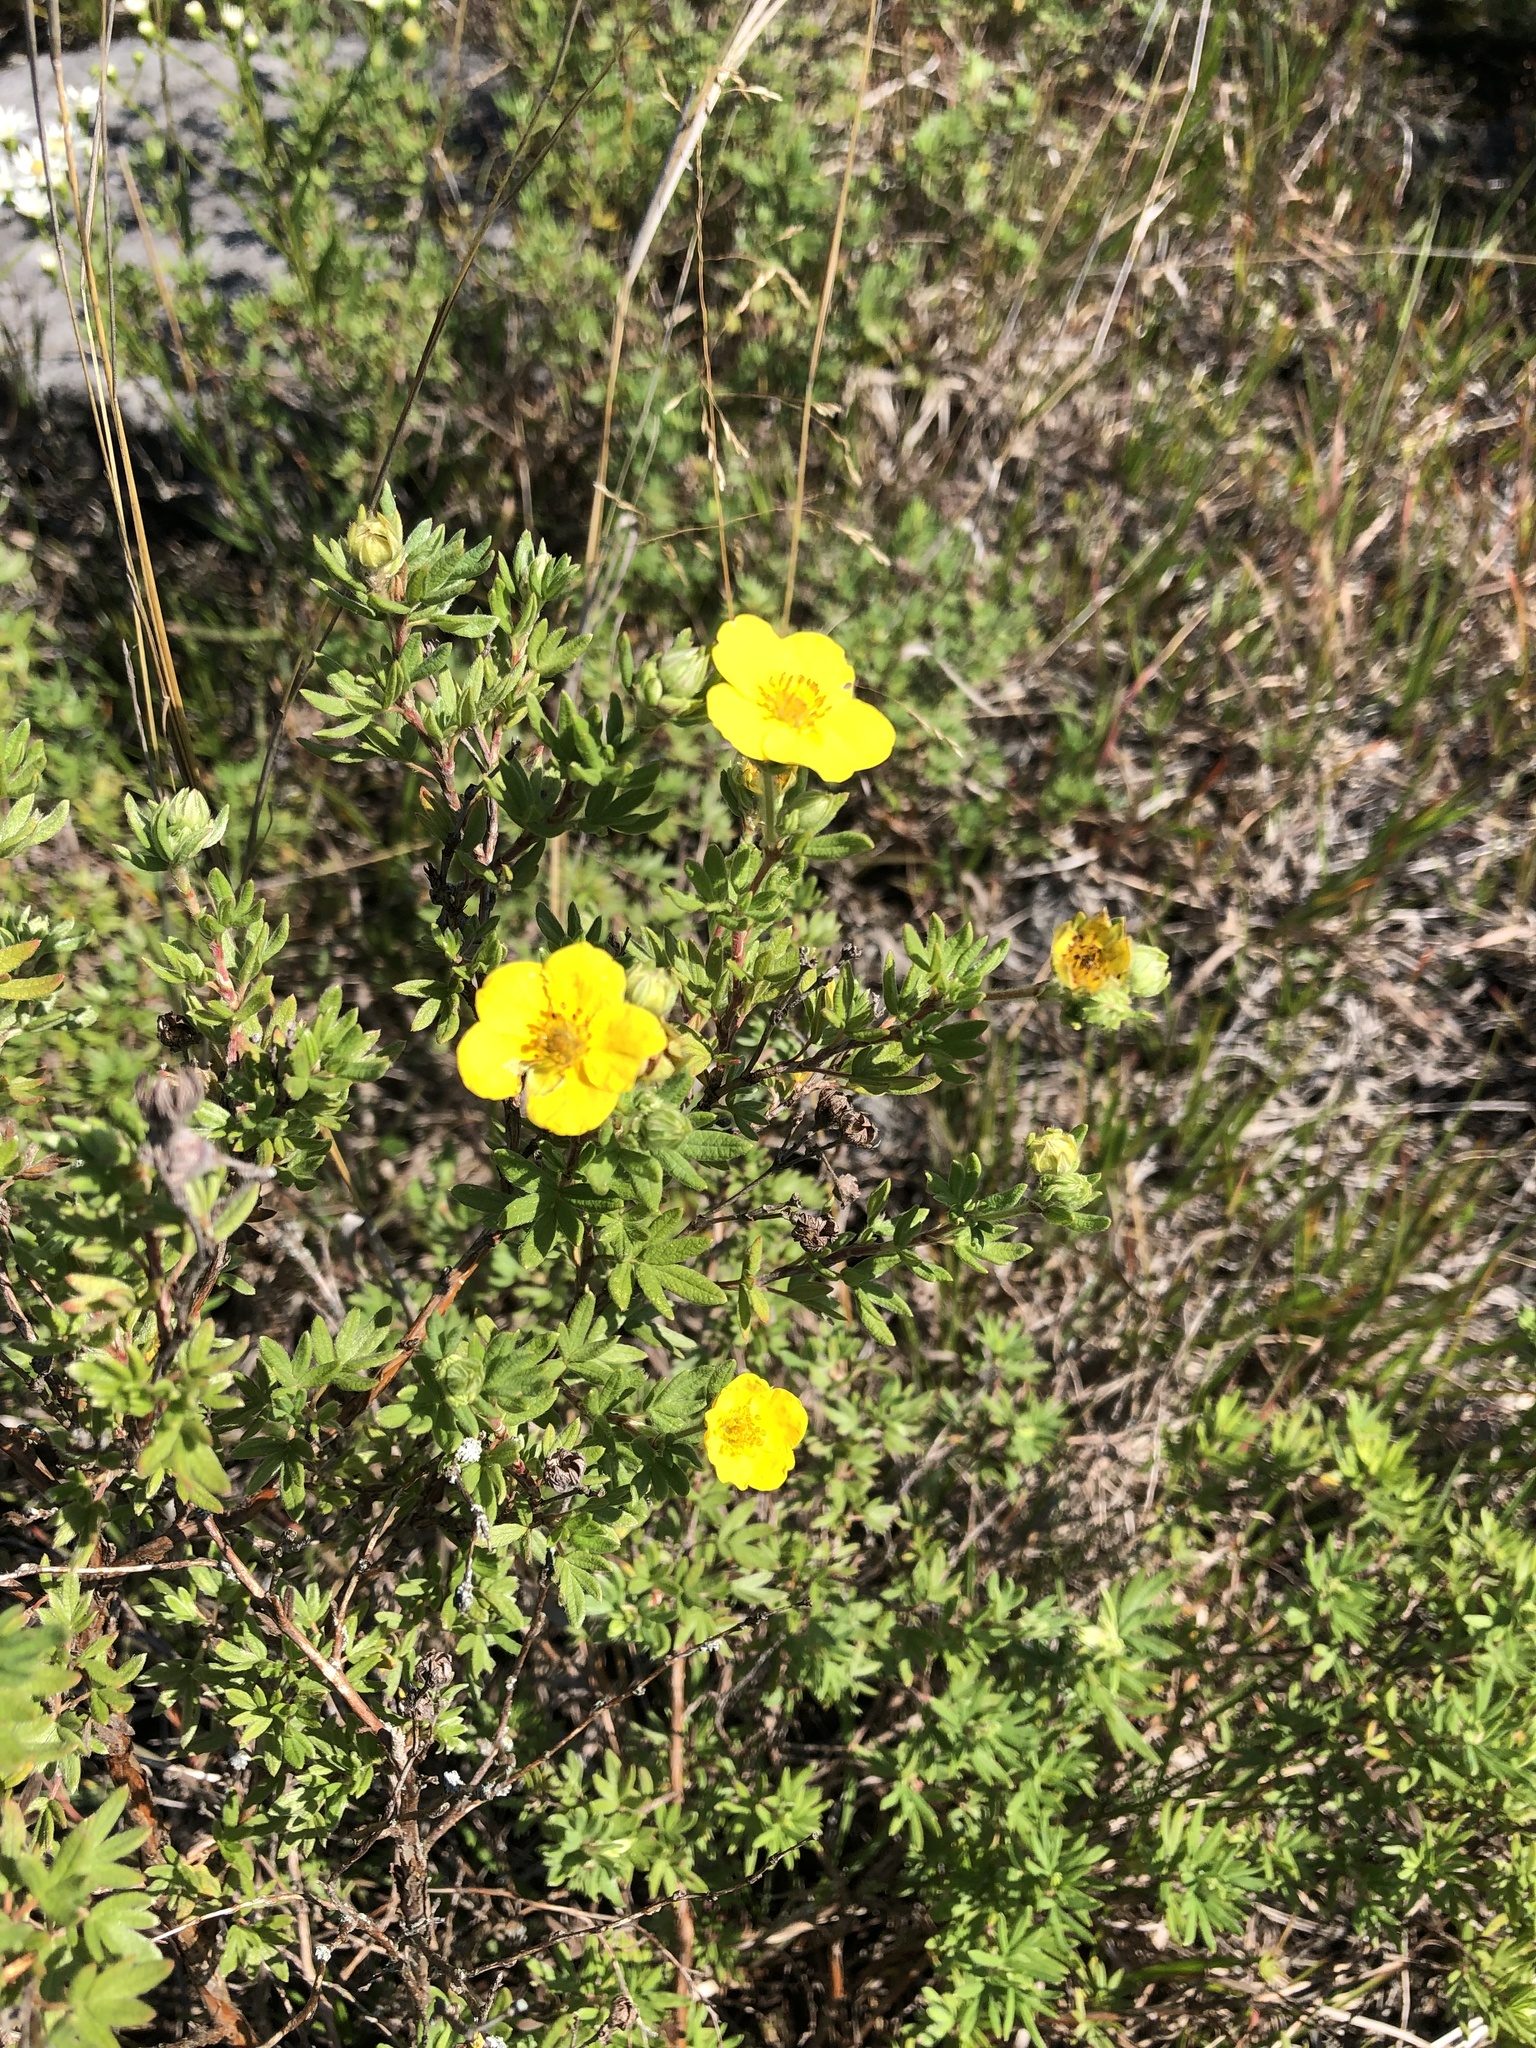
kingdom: Plantae
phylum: Tracheophyta
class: Magnoliopsida
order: Rosales
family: Rosaceae
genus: Dasiphora
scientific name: Dasiphora fruticosa
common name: Shrubby cinquefoil
